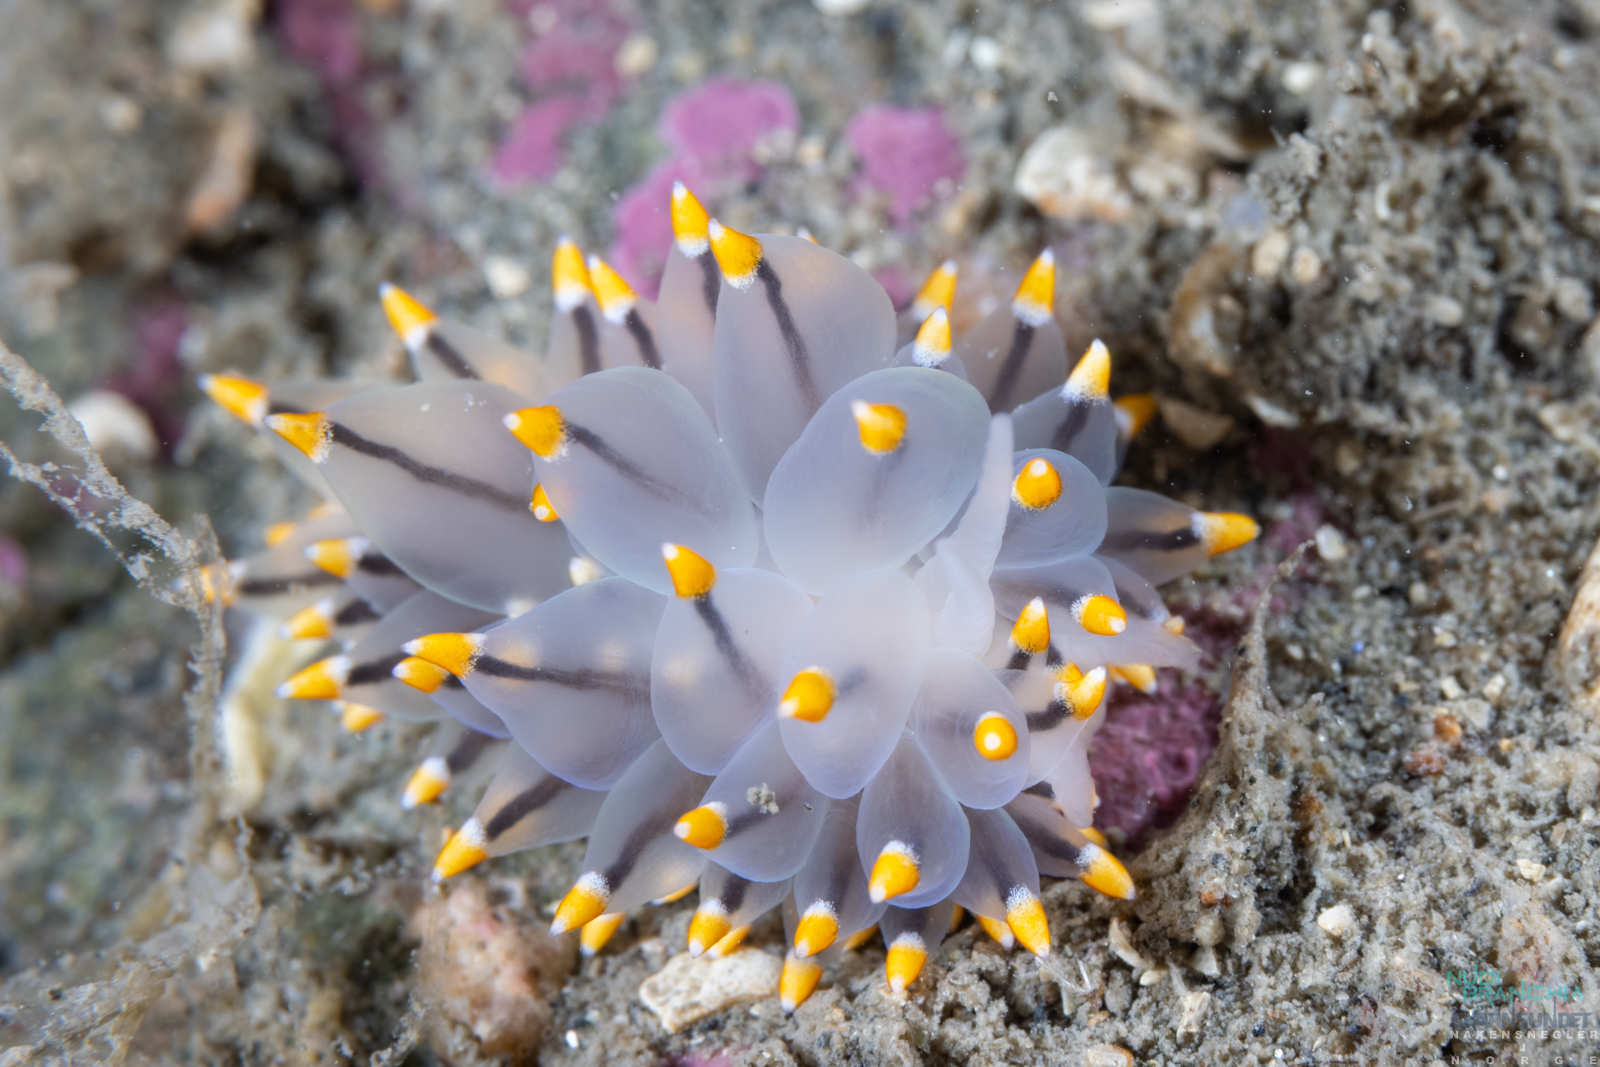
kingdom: Animalia
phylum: Mollusca
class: Gastropoda
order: Nudibranchia
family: Eubranchidae
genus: Eubranchus
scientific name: Eubranchus tricolor
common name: Painted balloon aeolis
